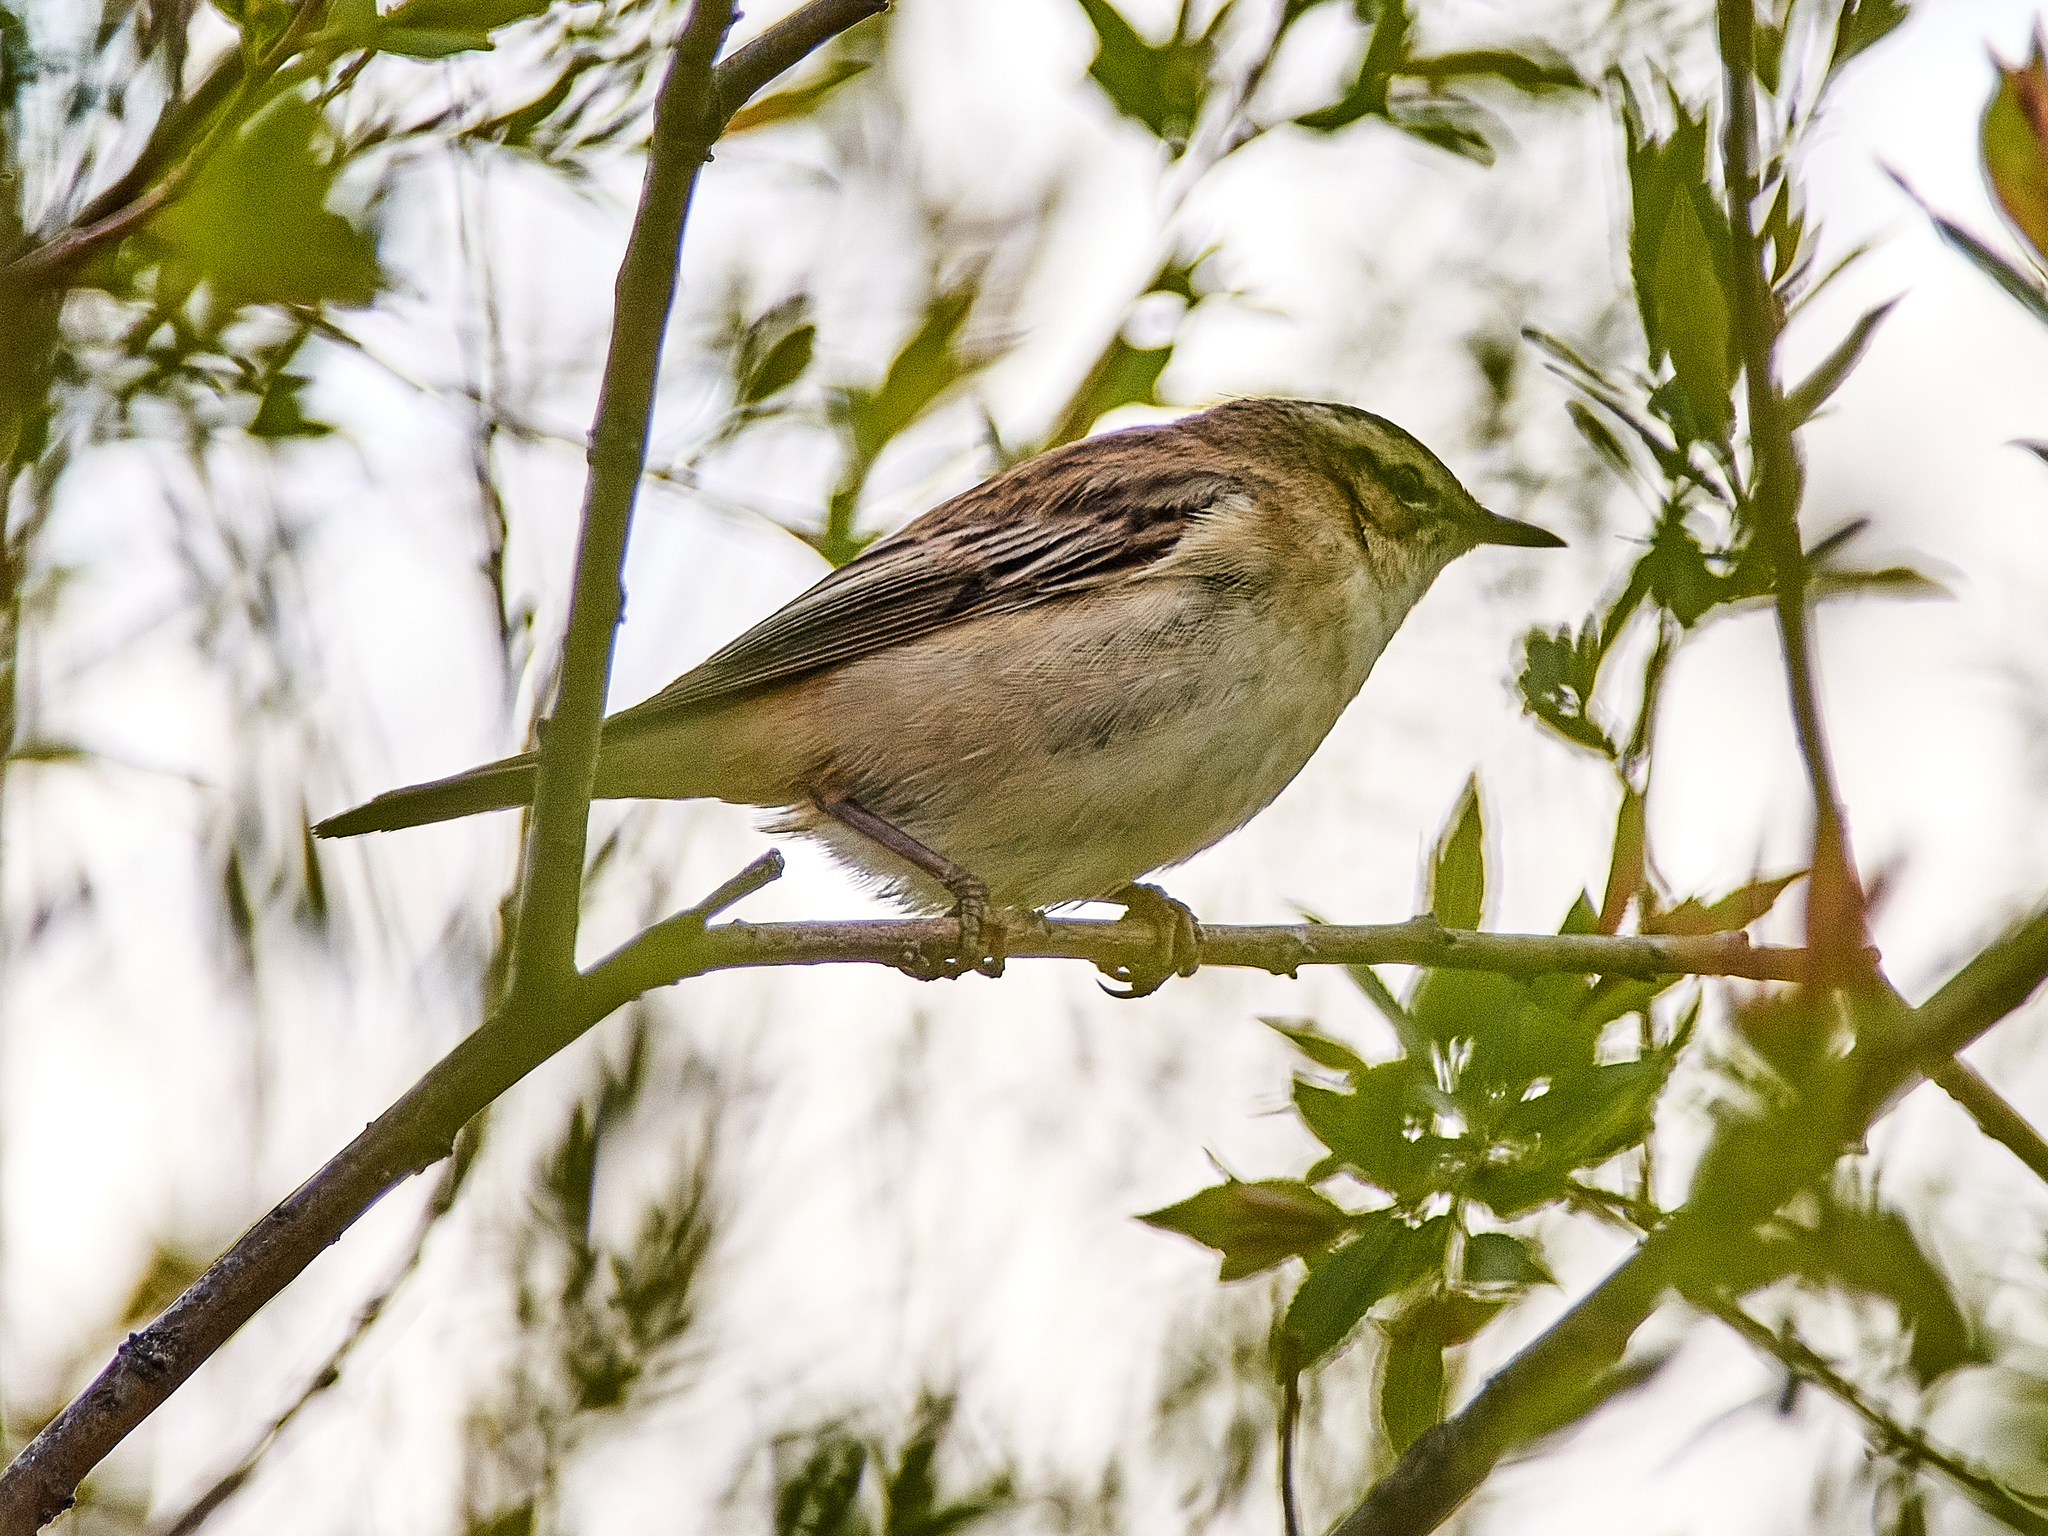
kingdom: Animalia
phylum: Chordata
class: Aves
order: Passeriformes
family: Acrocephalidae
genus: Acrocephalus
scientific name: Acrocephalus schoenobaenus
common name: Sedge warbler
